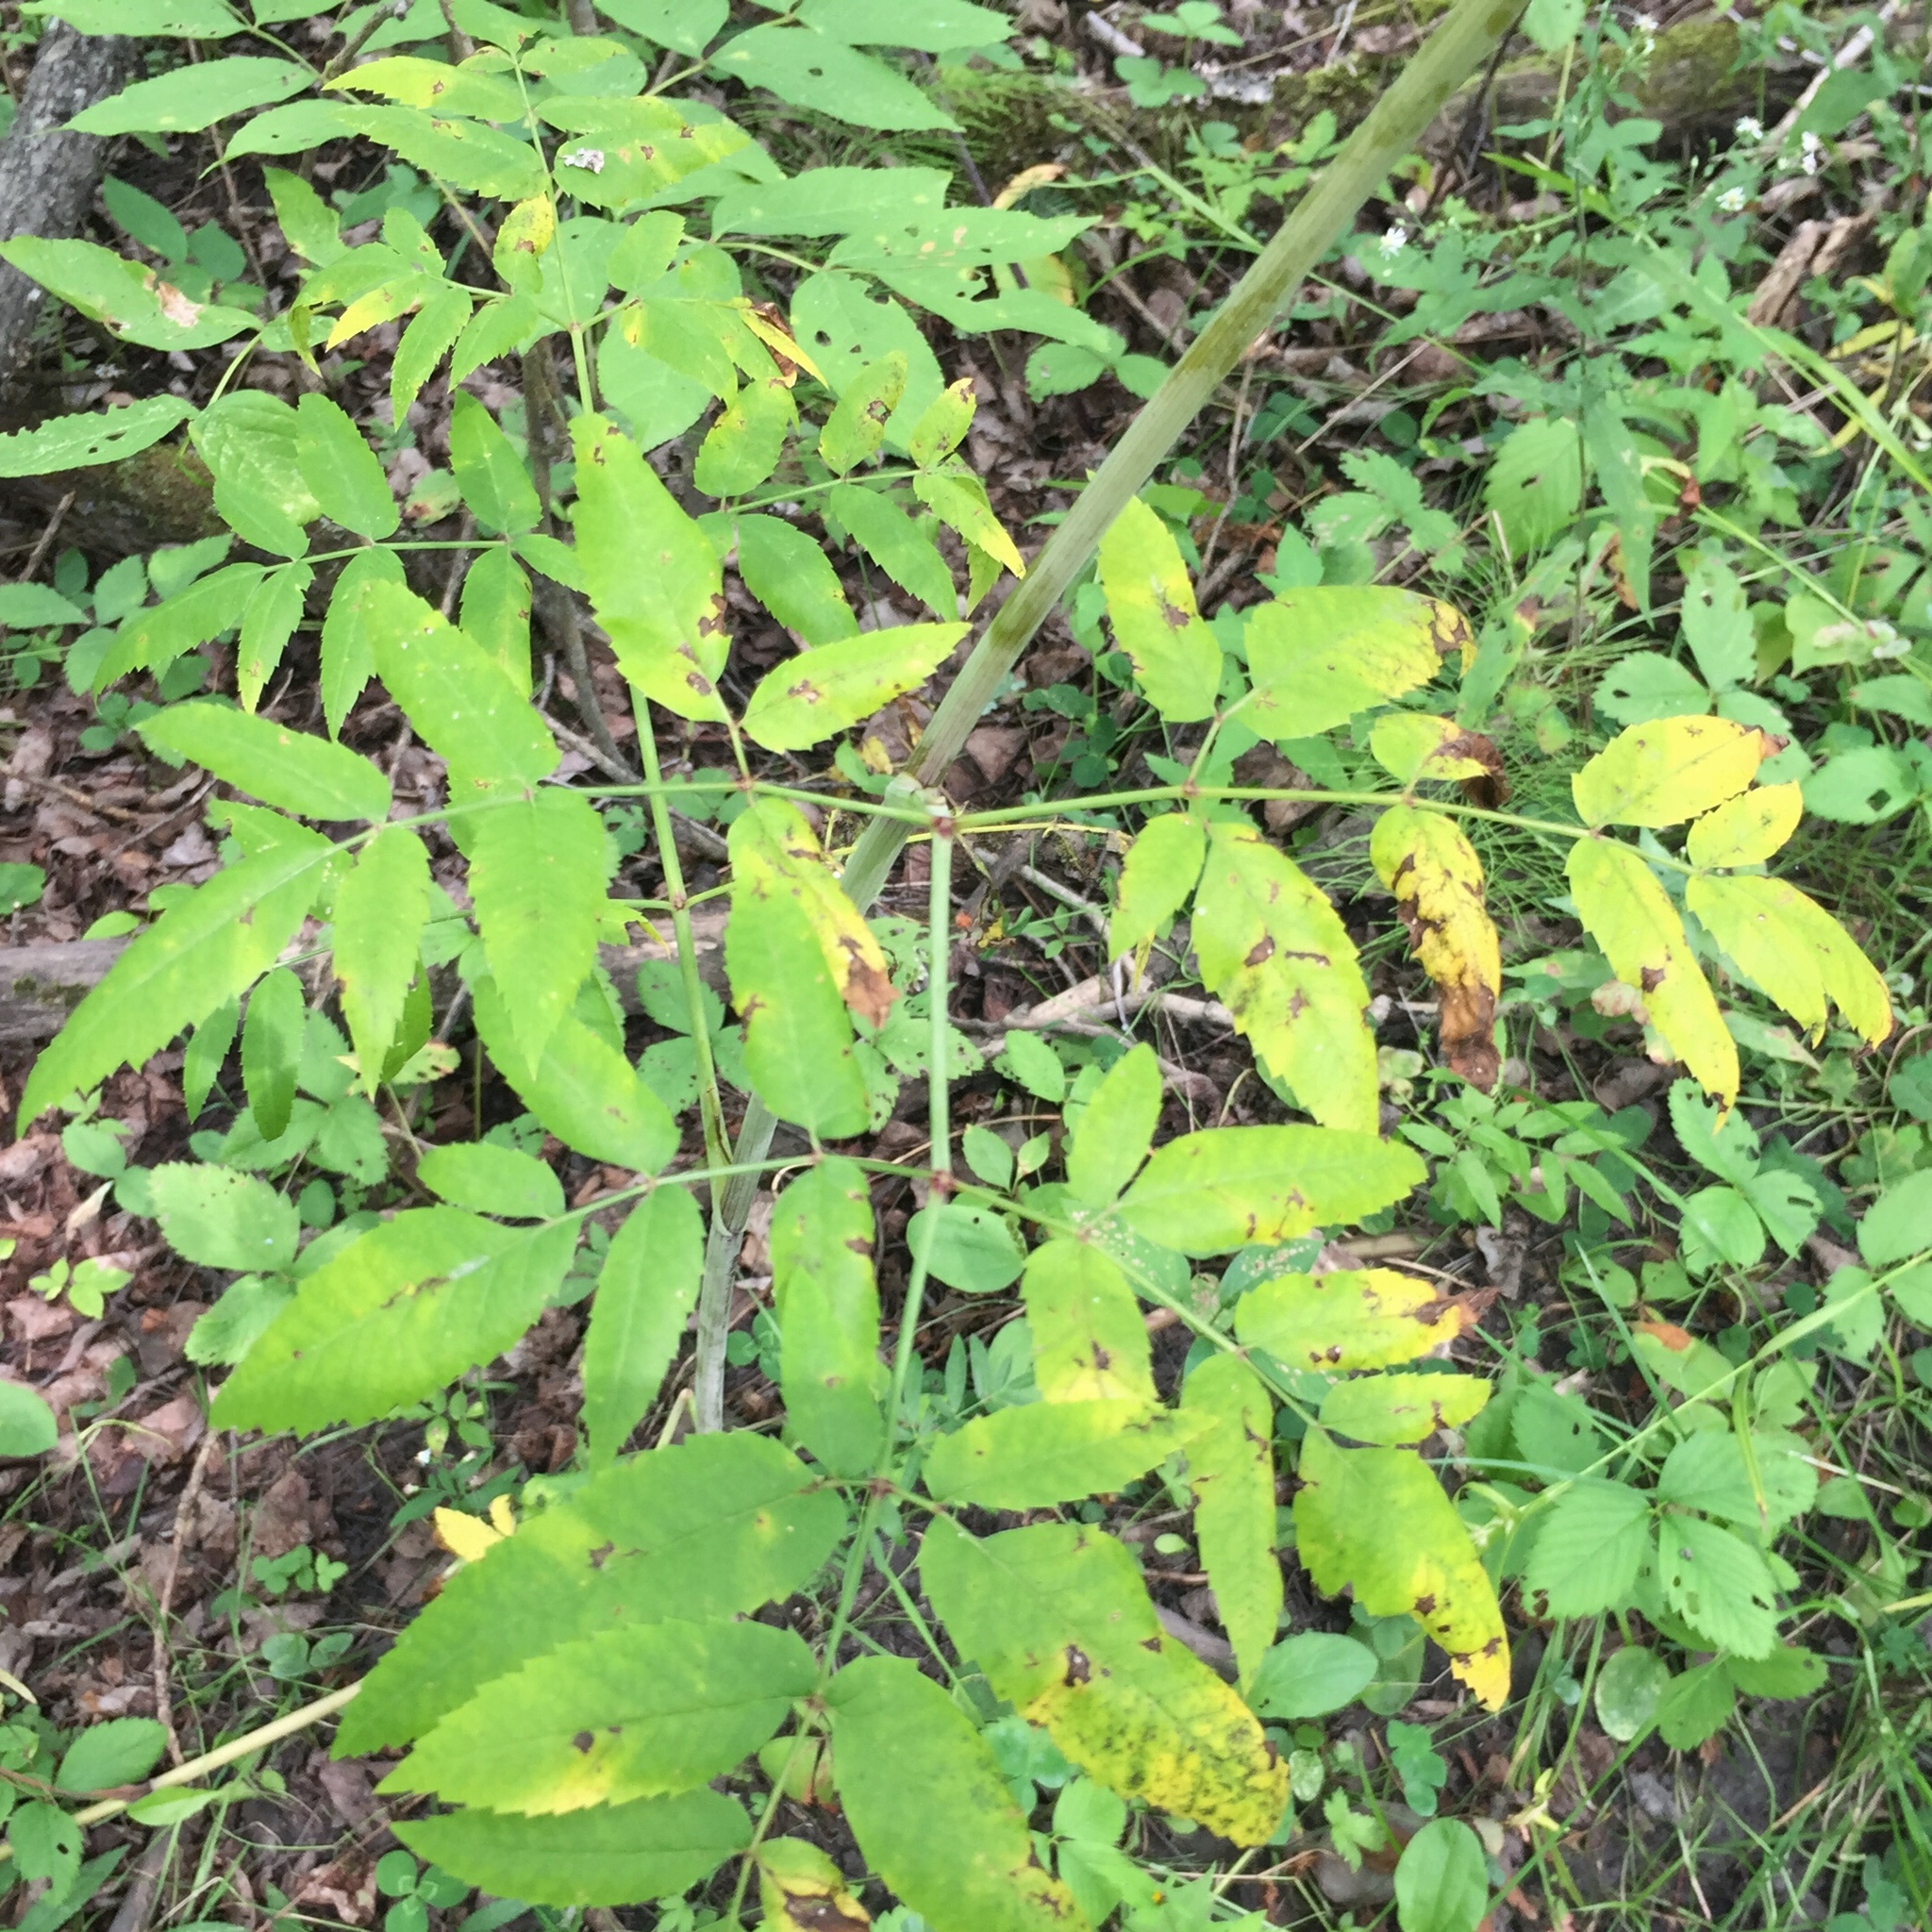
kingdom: Plantae
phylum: Tracheophyta
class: Magnoliopsida
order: Apiales
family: Apiaceae
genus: Cicuta
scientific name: Cicuta maculata
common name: Spotted cowbane
